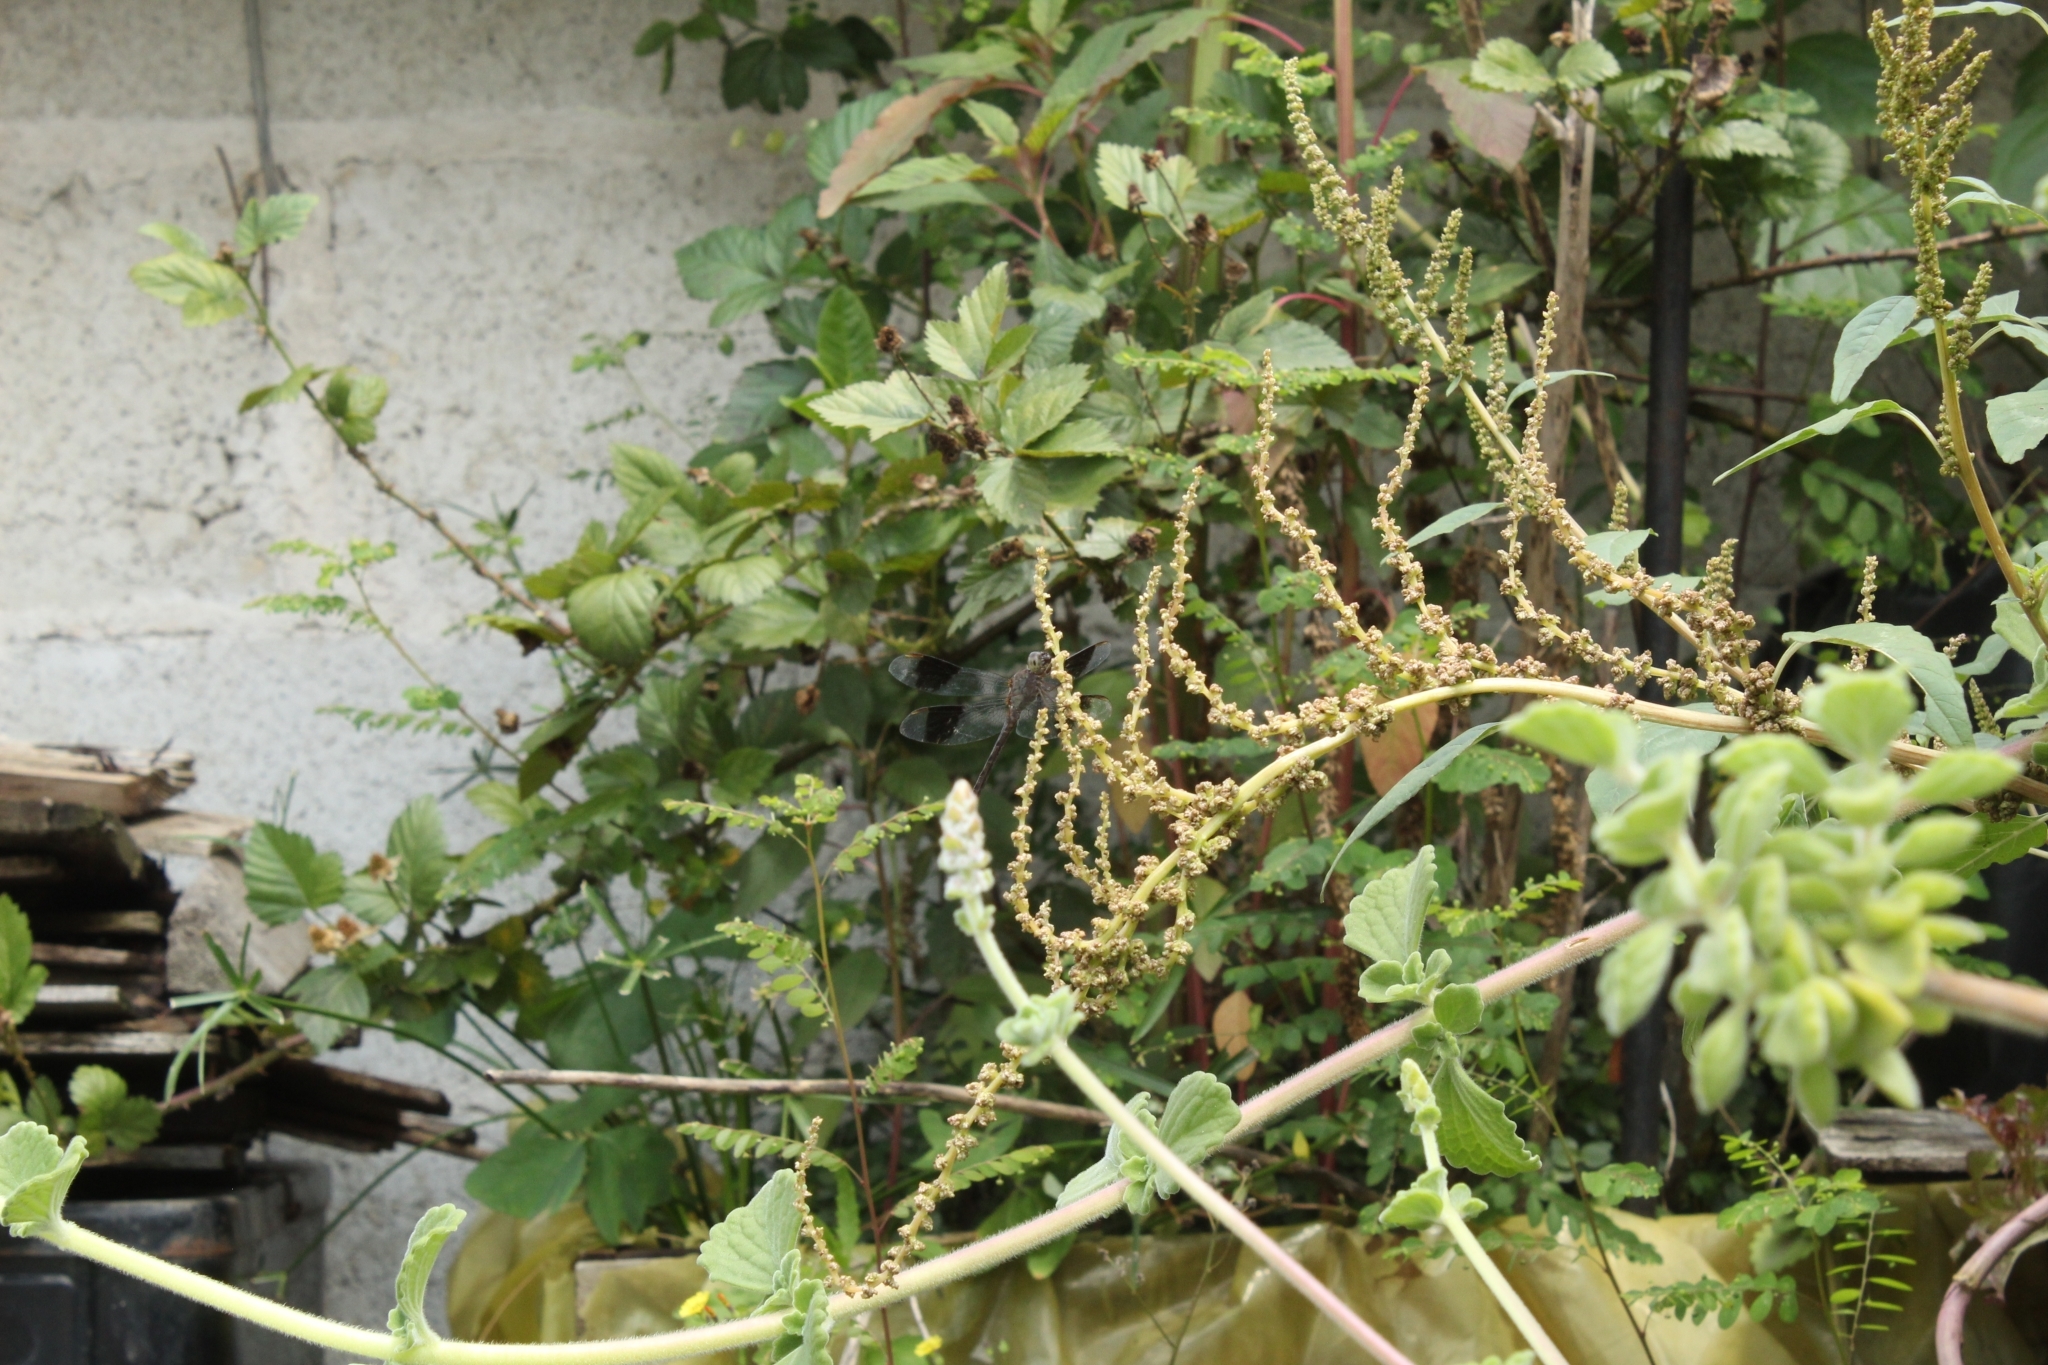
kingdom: Animalia
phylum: Arthropoda
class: Insecta
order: Odonata
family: Libellulidae
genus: Erythrodiplax
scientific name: Erythrodiplax umbrata
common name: Band-winged dragonlet
